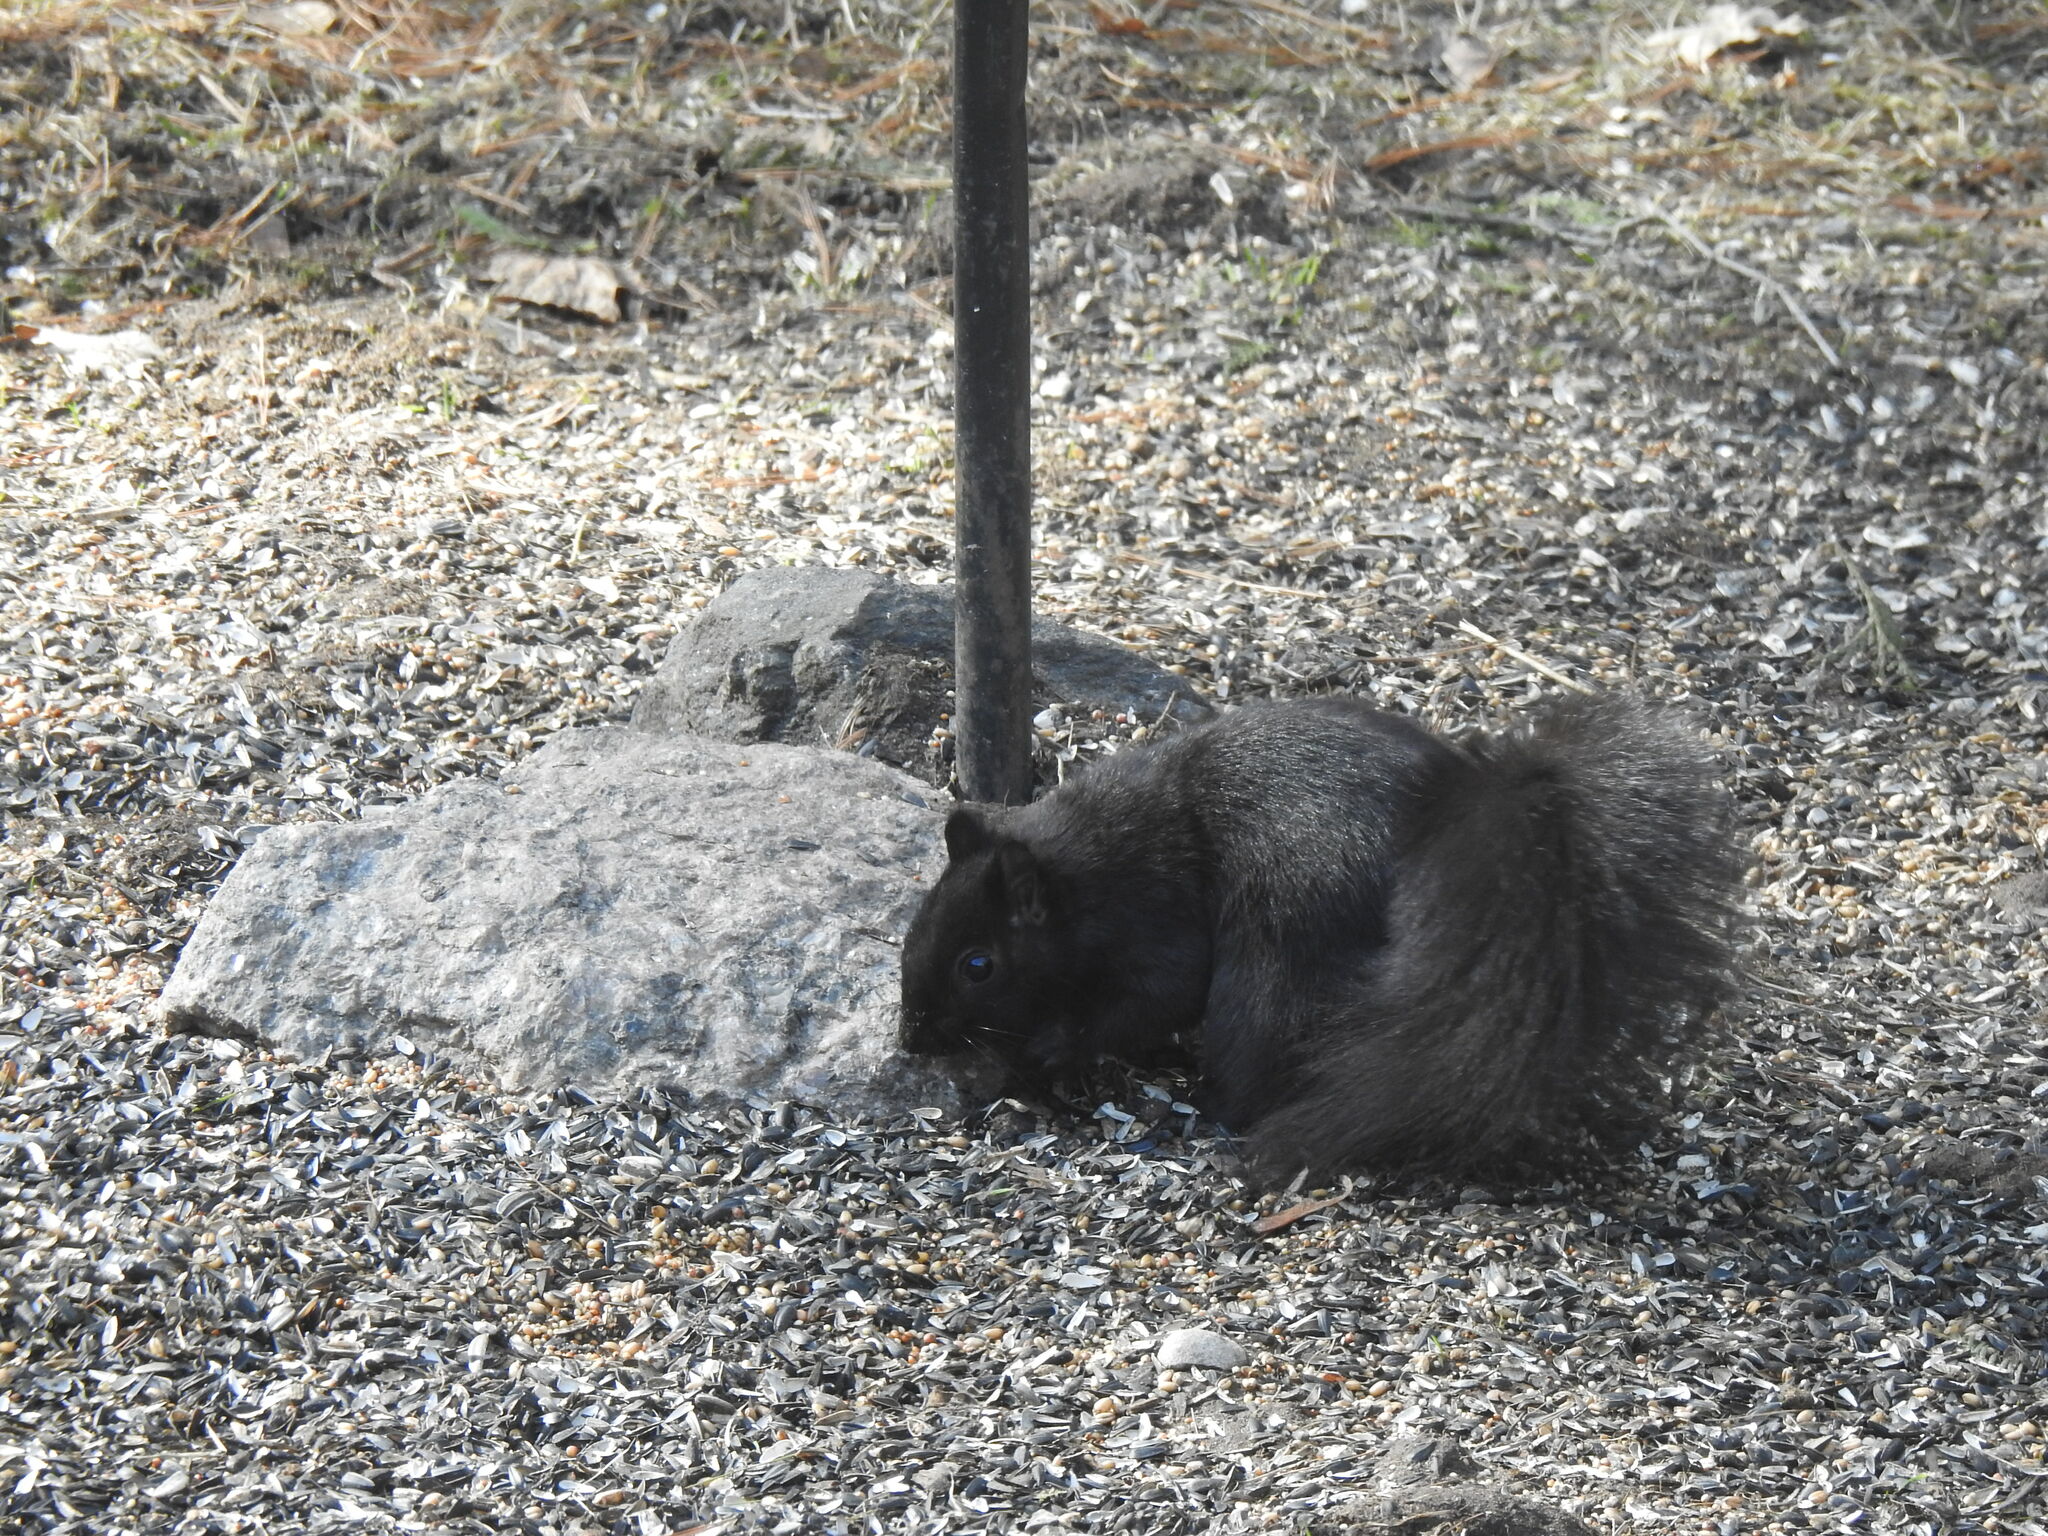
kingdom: Animalia
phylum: Chordata
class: Mammalia
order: Rodentia
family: Sciuridae
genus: Sciurus
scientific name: Sciurus carolinensis
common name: Eastern gray squirrel
